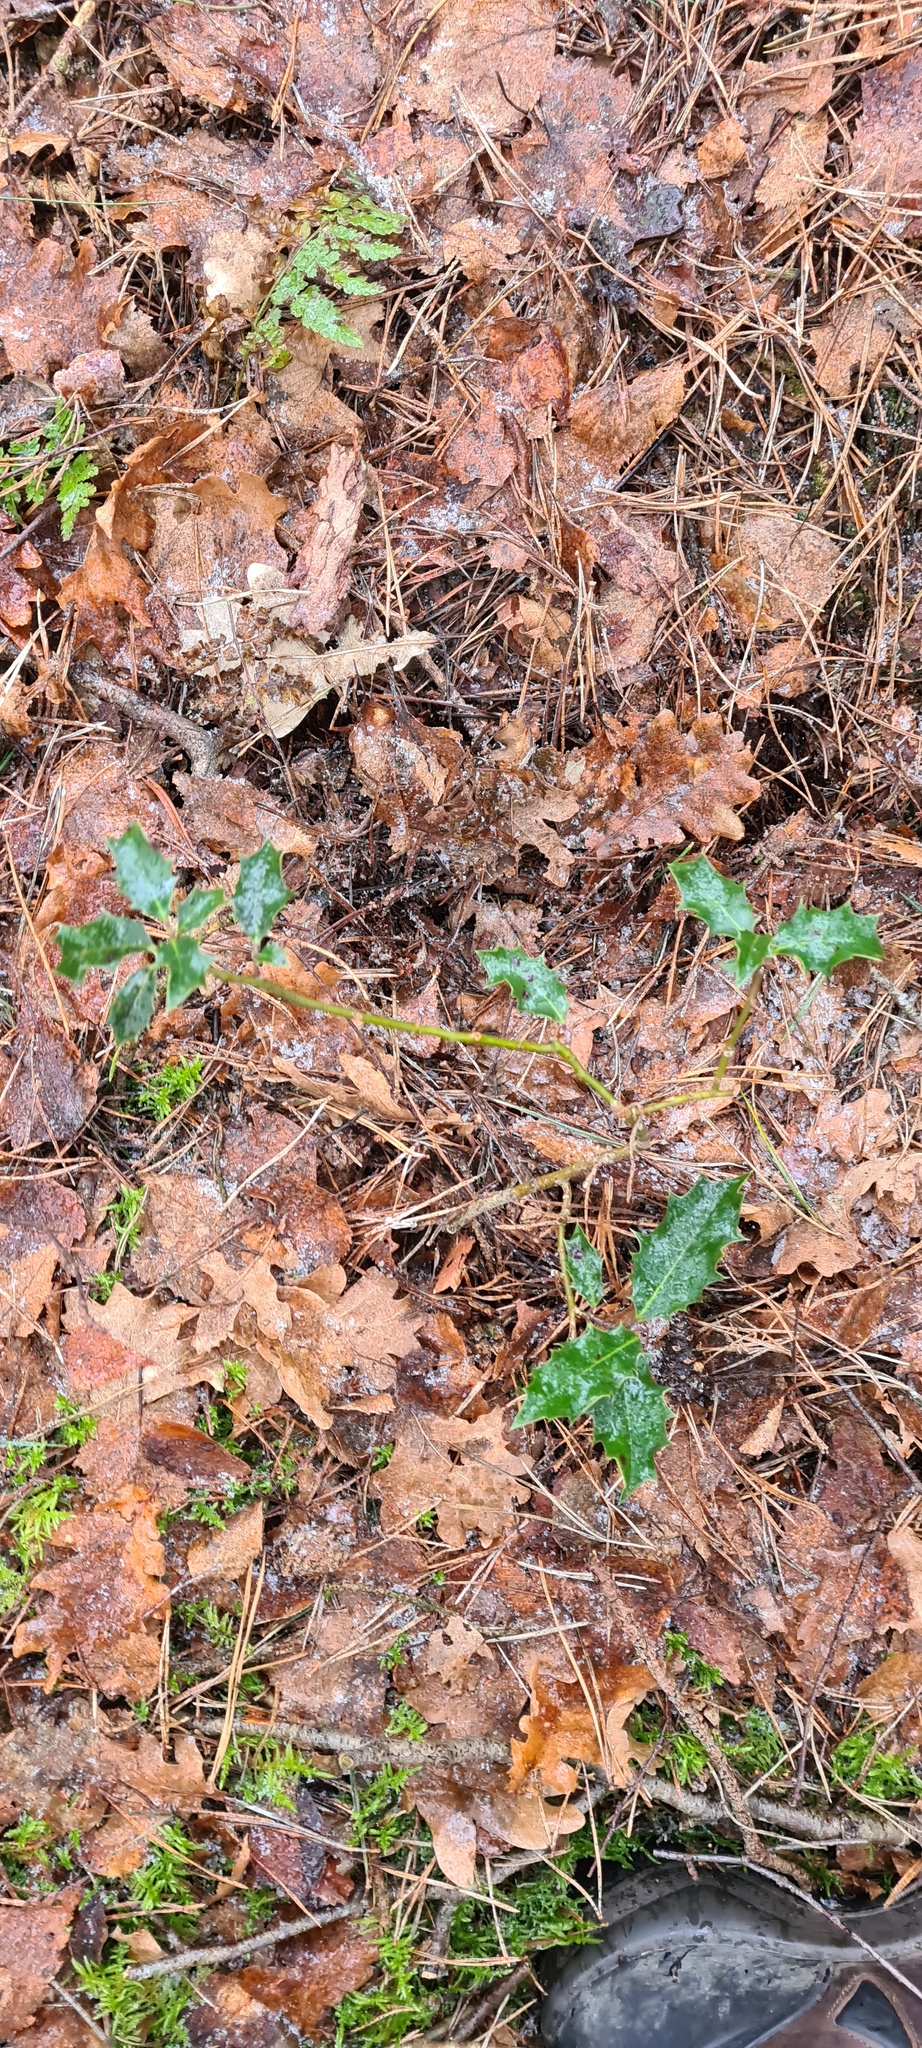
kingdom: Plantae
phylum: Tracheophyta
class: Magnoliopsida
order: Aquifoliales
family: Aquifoliaceae
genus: Ilex
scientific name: Ilex aquifolium
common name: English holly
